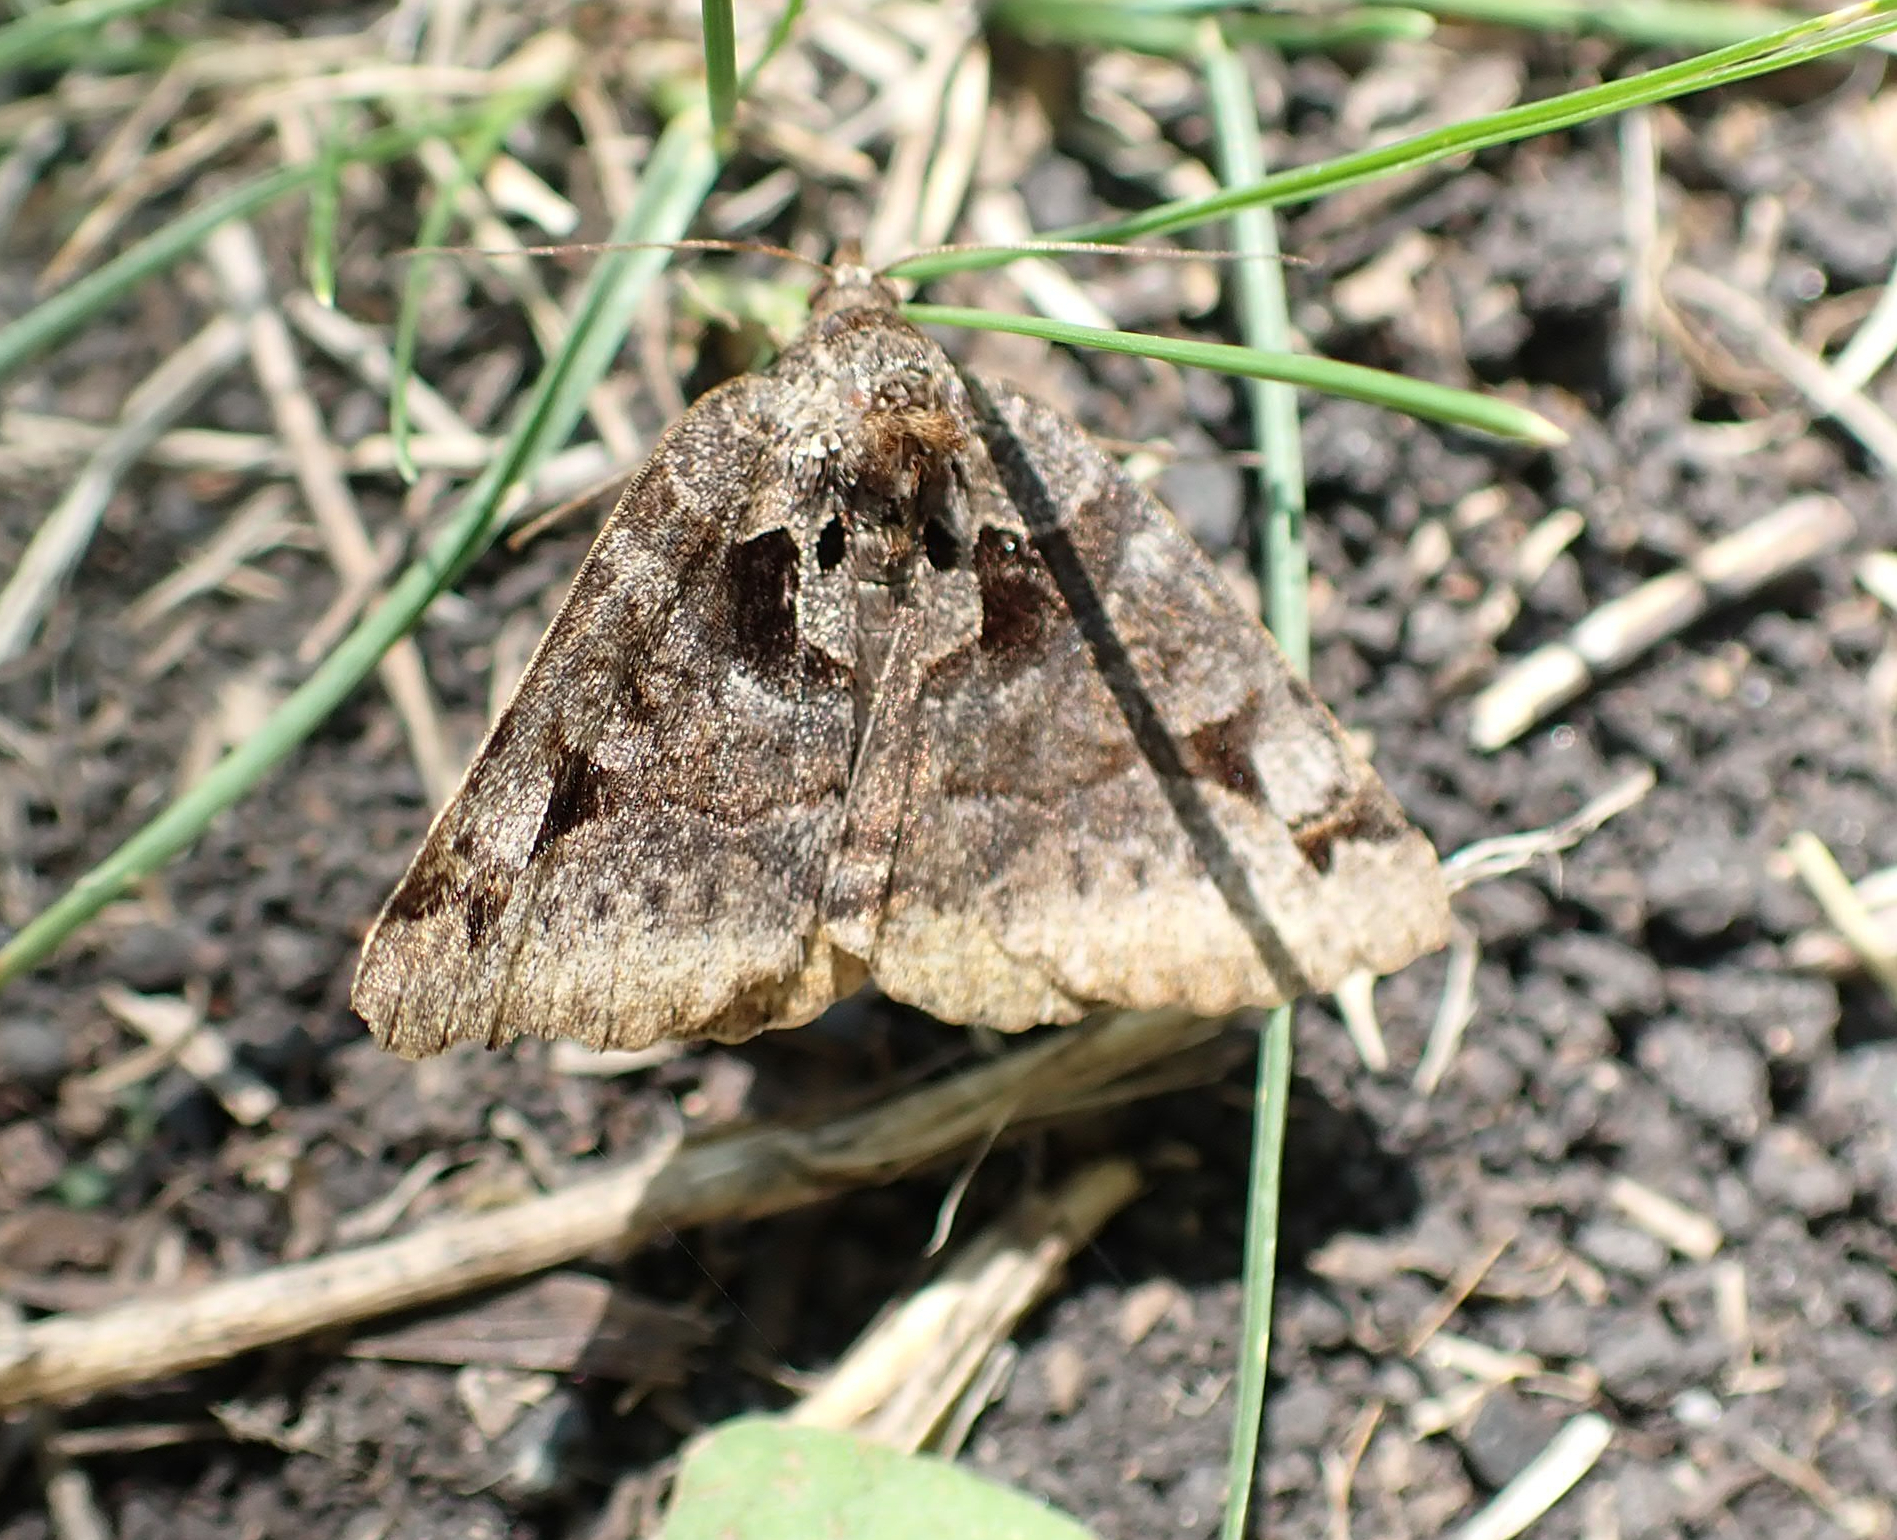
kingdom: Animalia
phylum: Arthropoda
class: Insecta
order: Lepidoptera
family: Erebidae
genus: Euclidia
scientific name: Euclidia cuspidea
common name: Toothed somberwing
